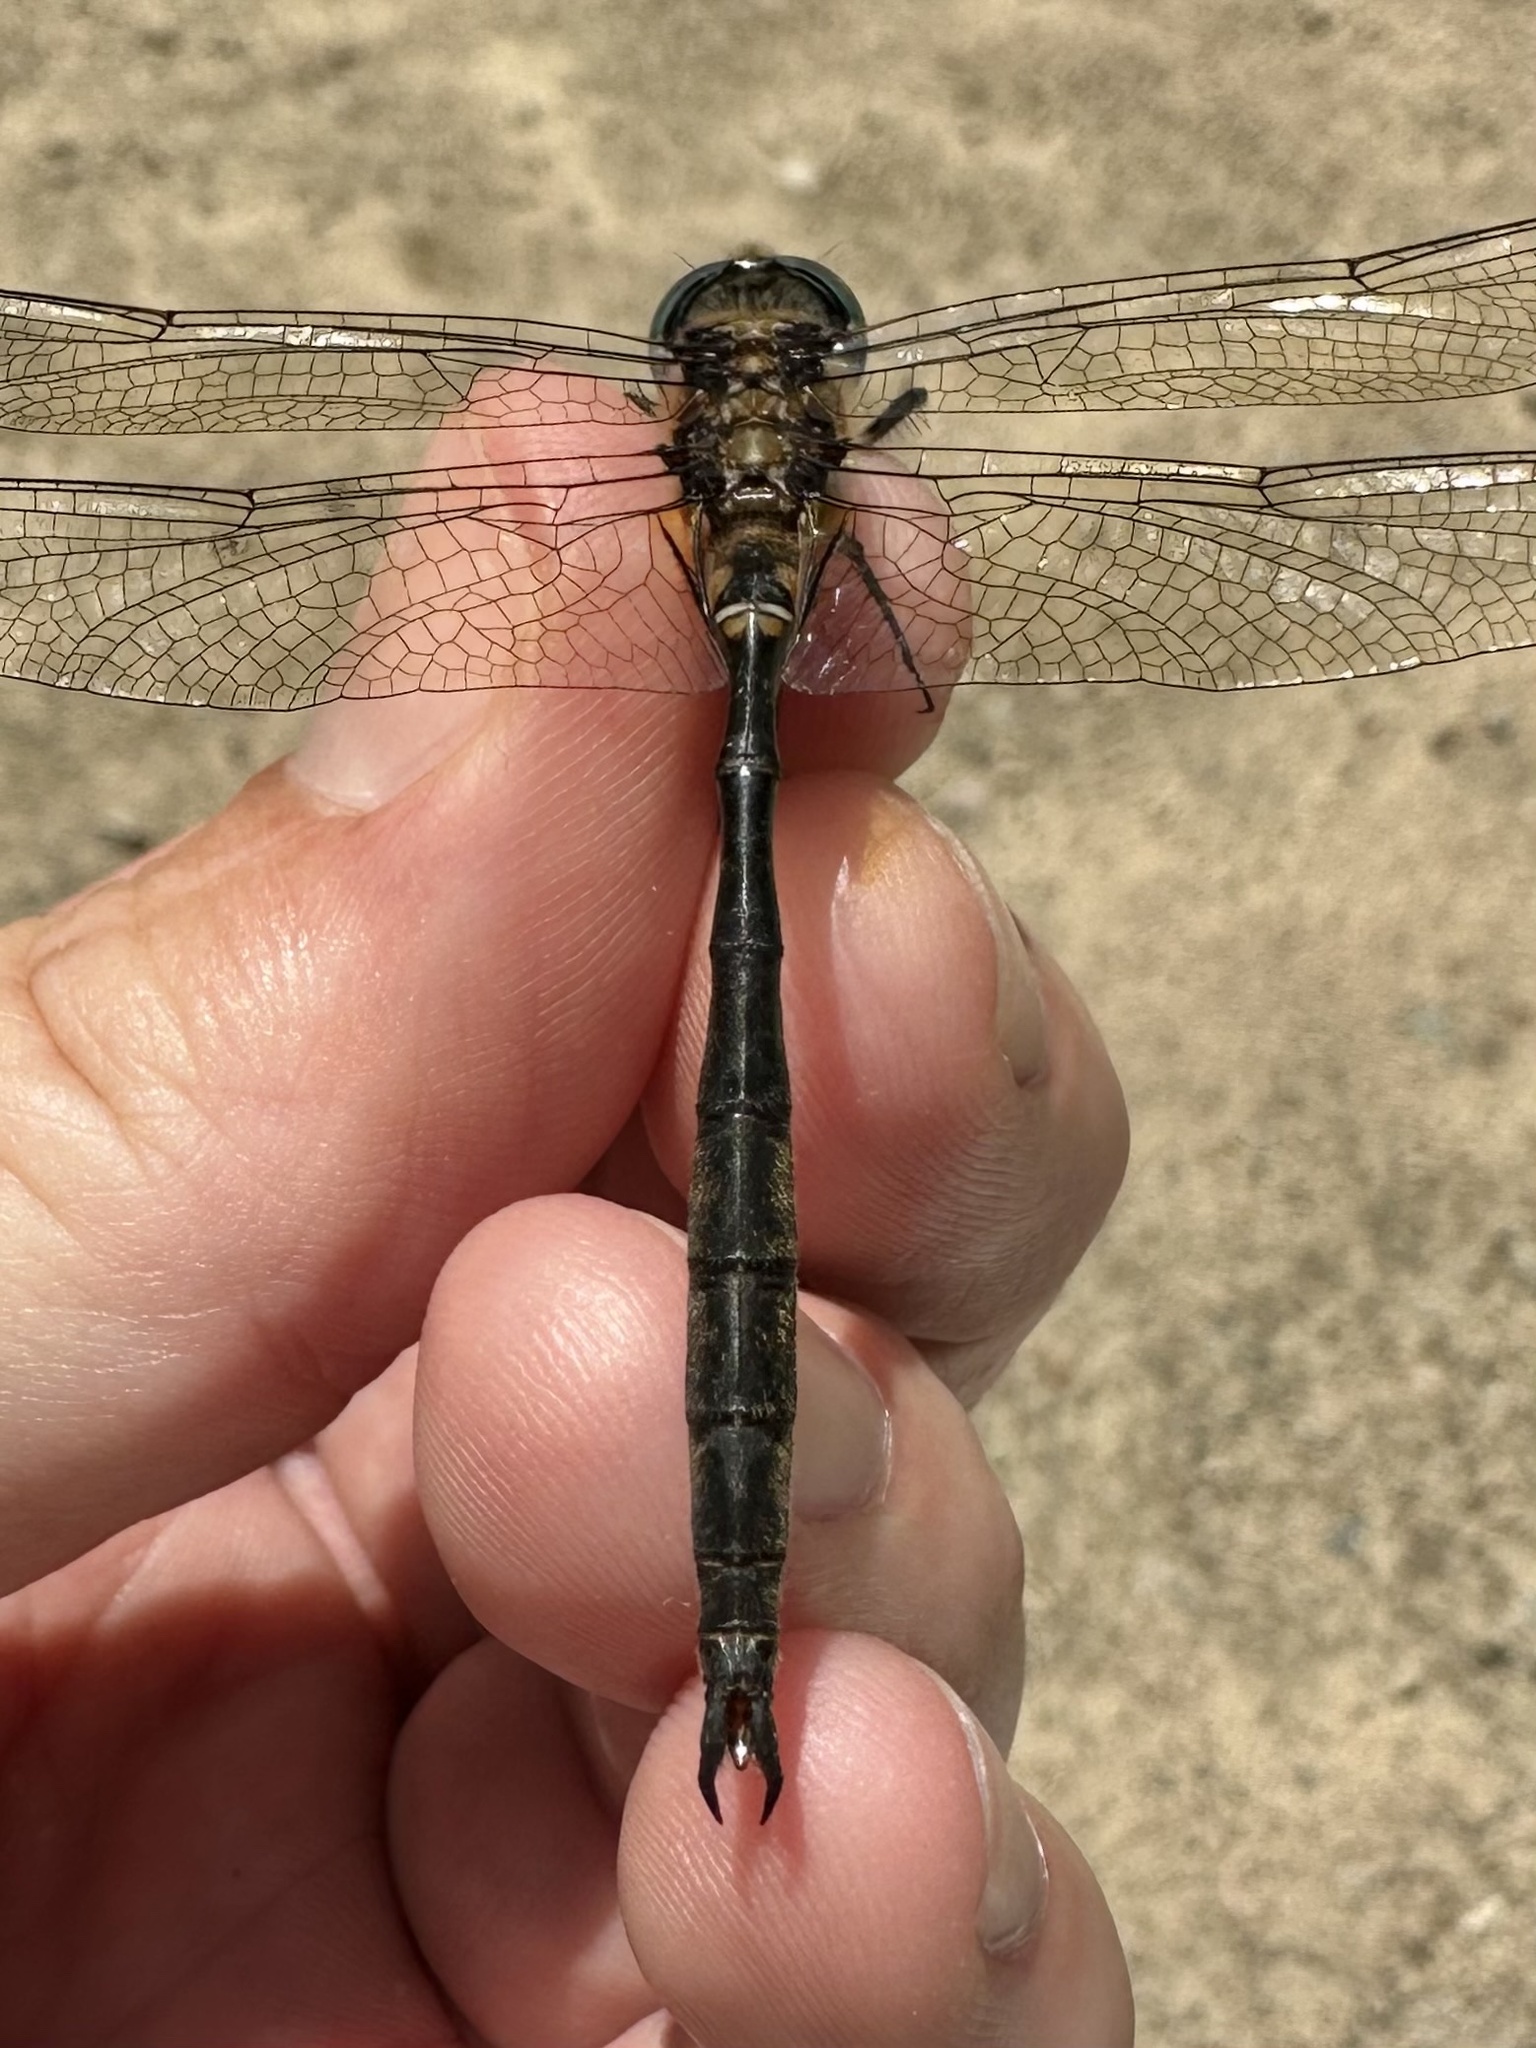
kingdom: Animalia
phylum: Arthropoda
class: Insecta
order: Odonata
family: Corduliidae
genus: Somatochlora
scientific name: Somatochlora kennedyi
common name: Kennedy's emerald
